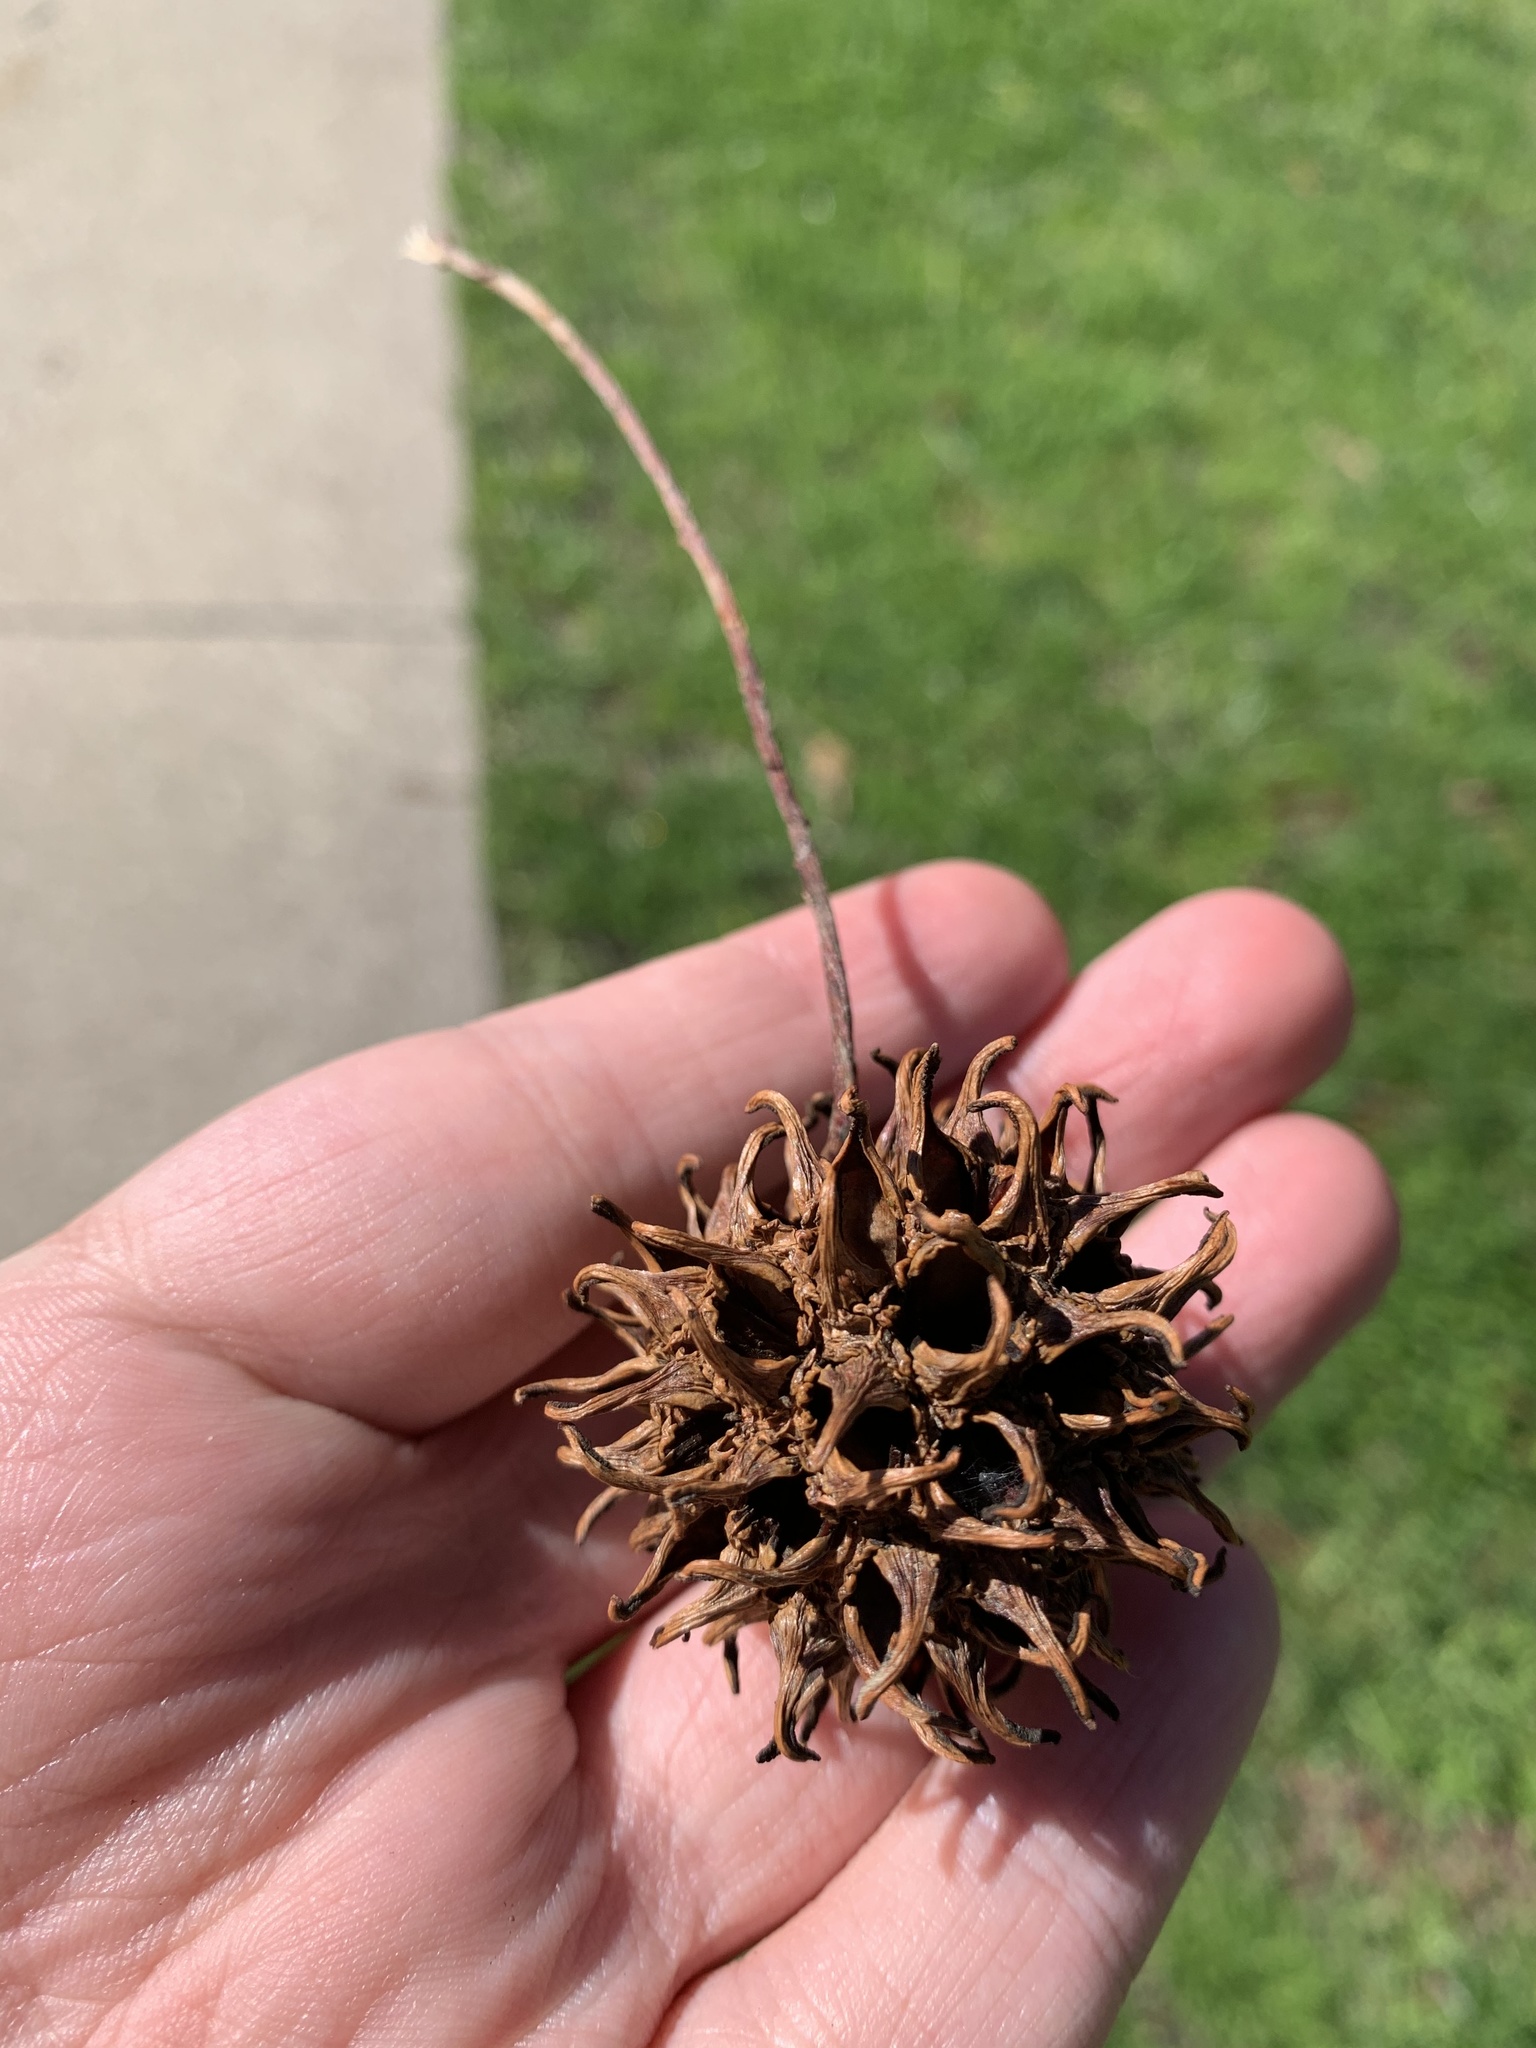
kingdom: Plantae
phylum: Tracheophyta
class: Magnoliopsida
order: Saxifragales
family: Altingiaceae
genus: Liquidambar
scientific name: Liquidambar styraciflua
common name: Sweet gum
